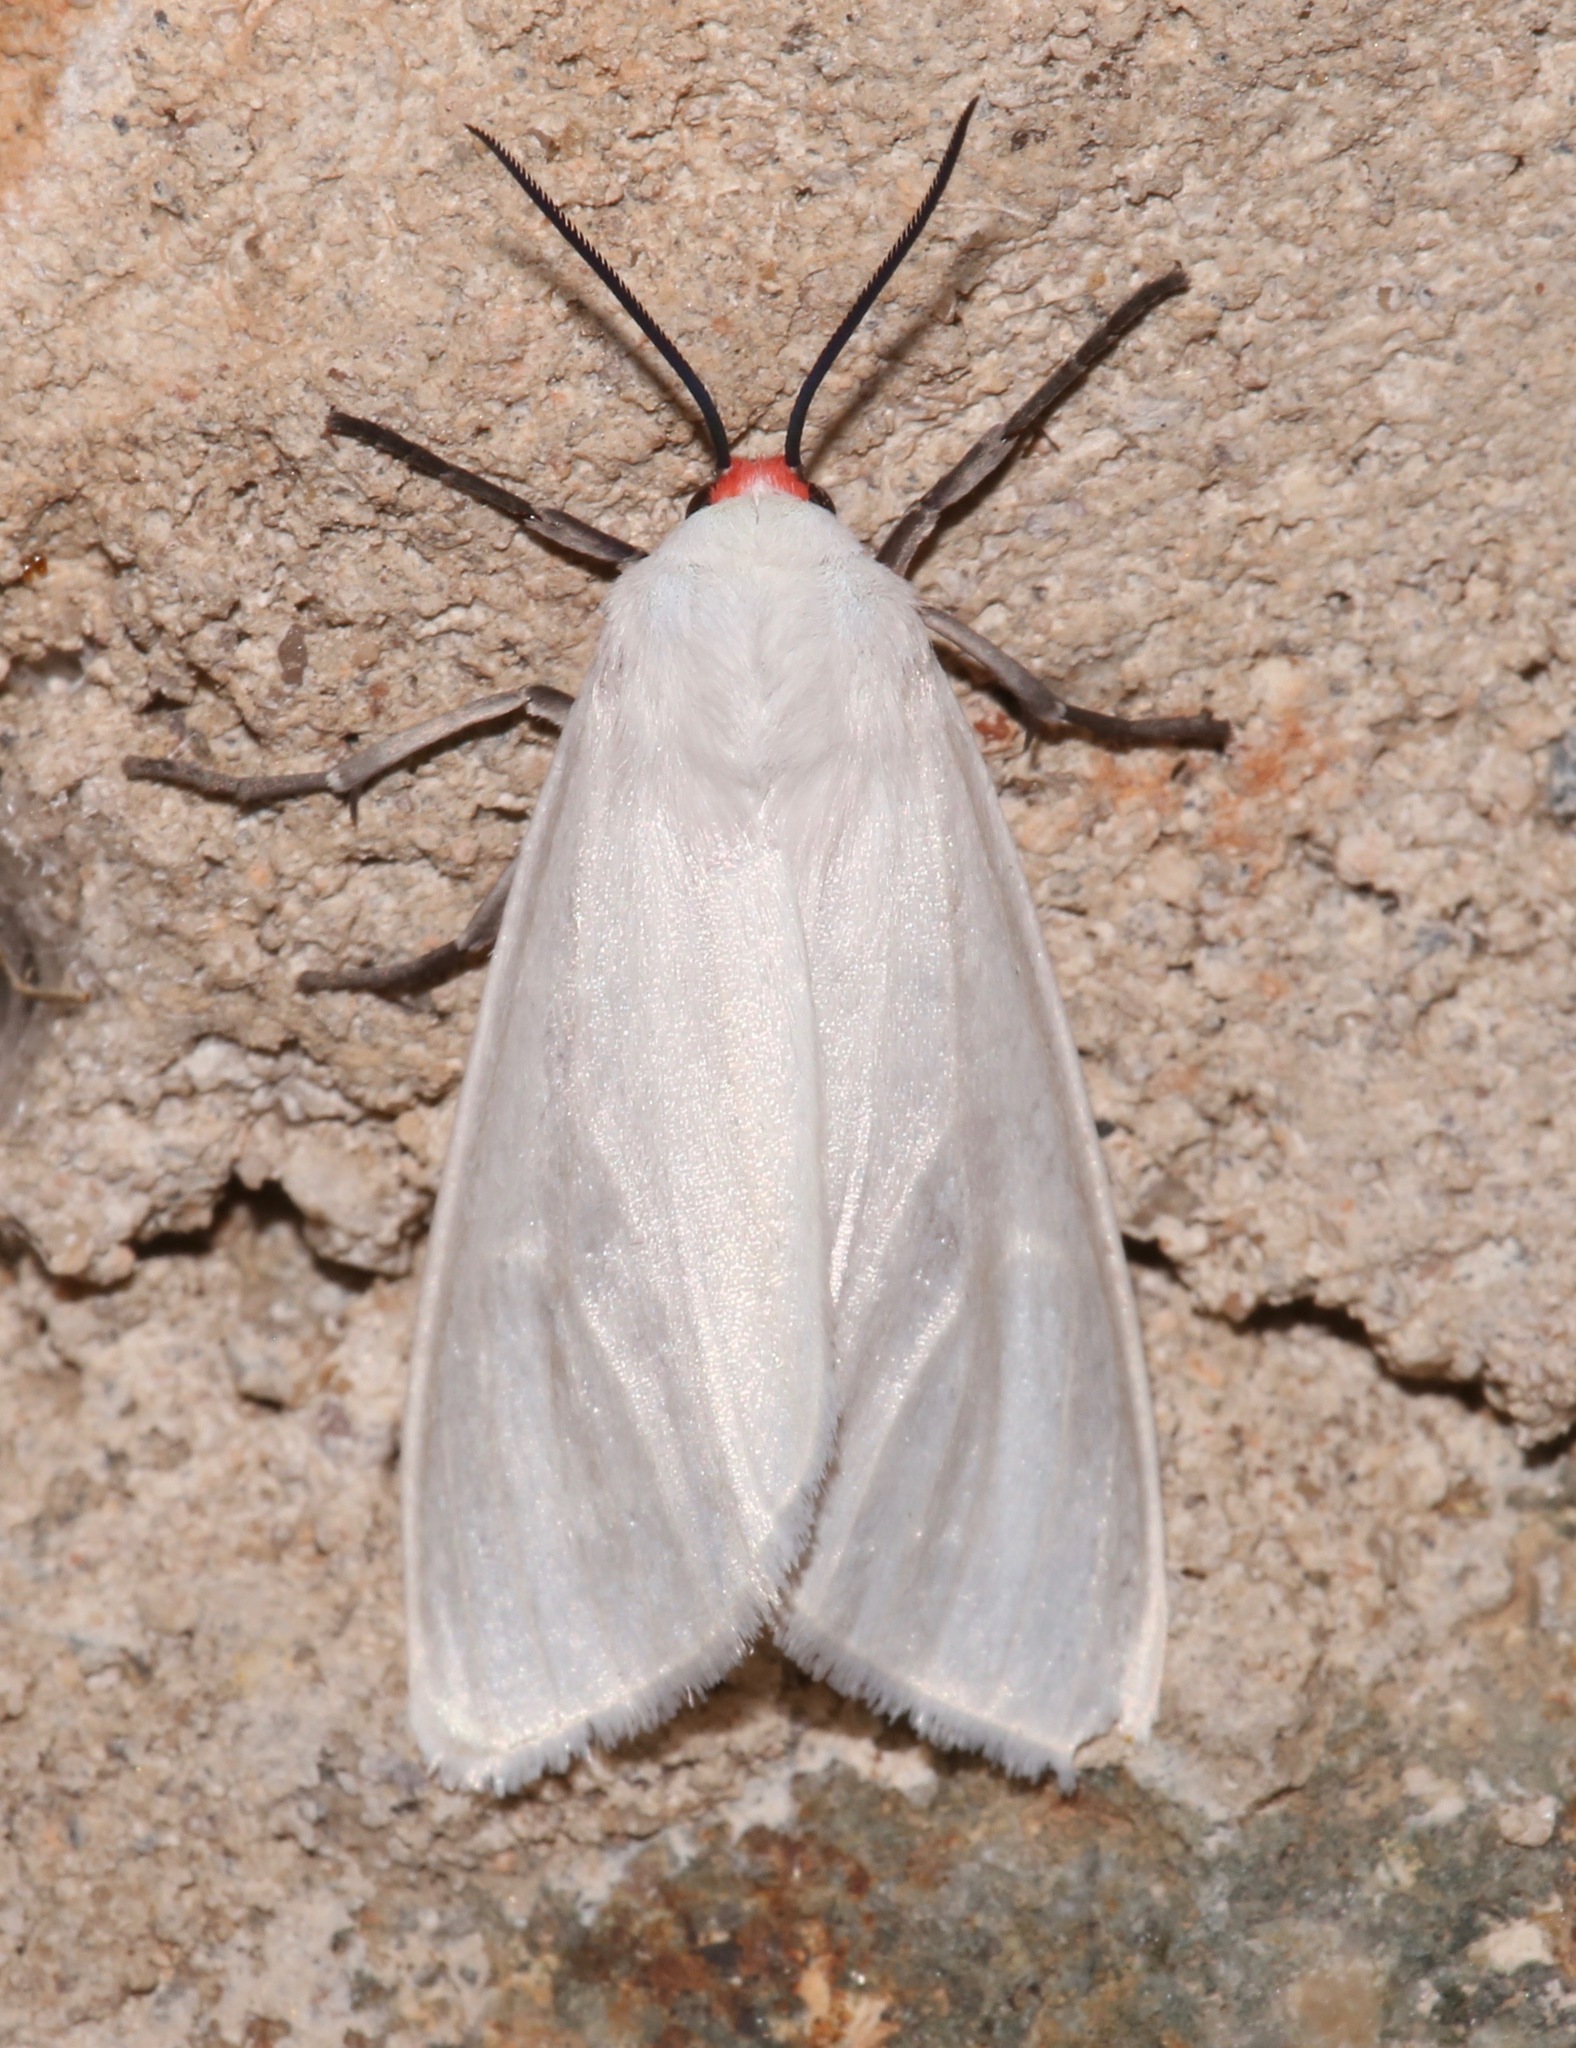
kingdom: Animalia
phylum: Arthropoda
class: Insecta
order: Lepidoptera
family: Erebidae
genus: Pygarctia
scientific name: Pygarctia roseicapitis
